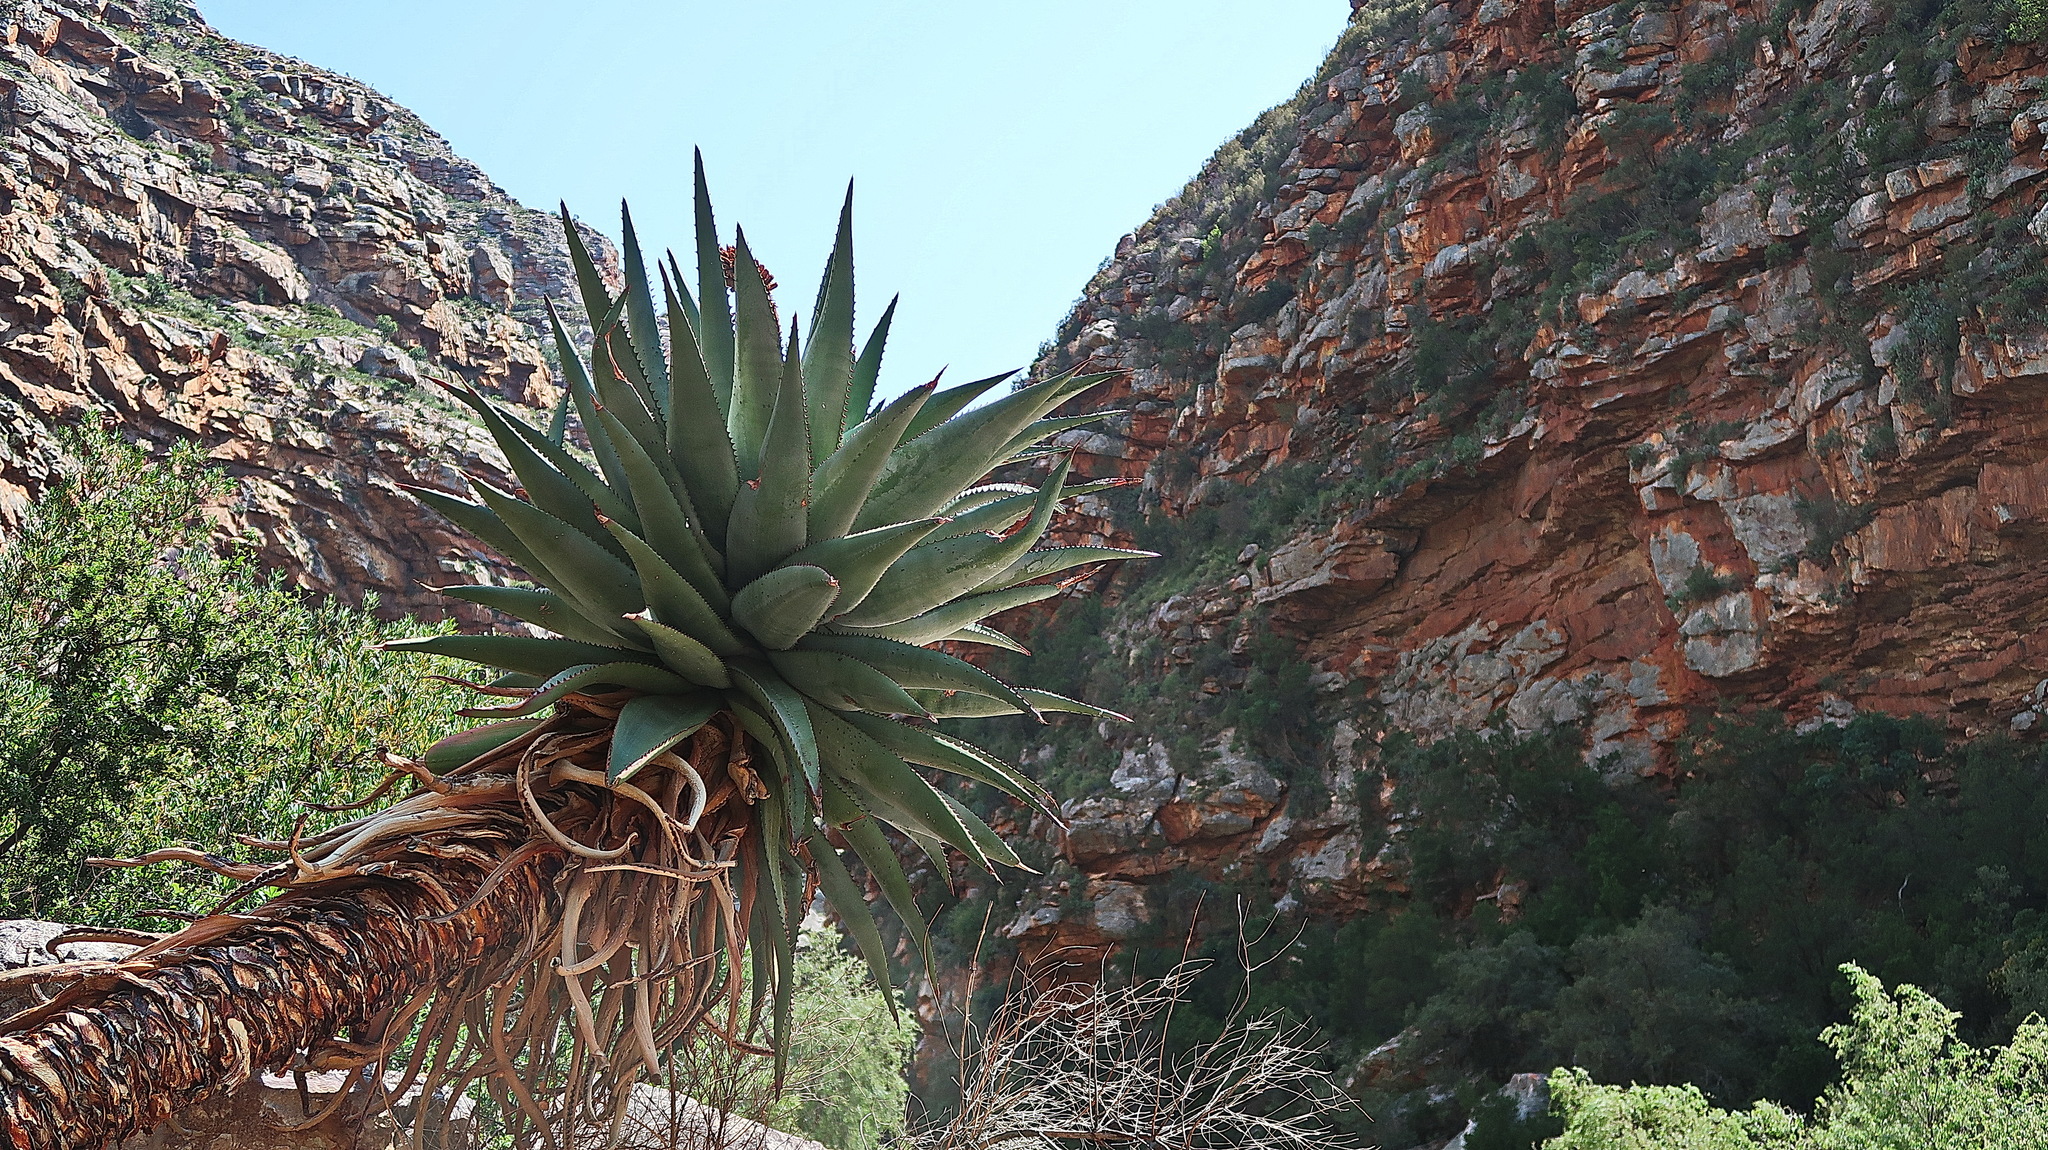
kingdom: Plantae
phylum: Tracheophyta
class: Liliopsida
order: Asparagales
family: Asphodelaceae
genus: Aloe
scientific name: Aloe ferox
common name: Bitter aloe
